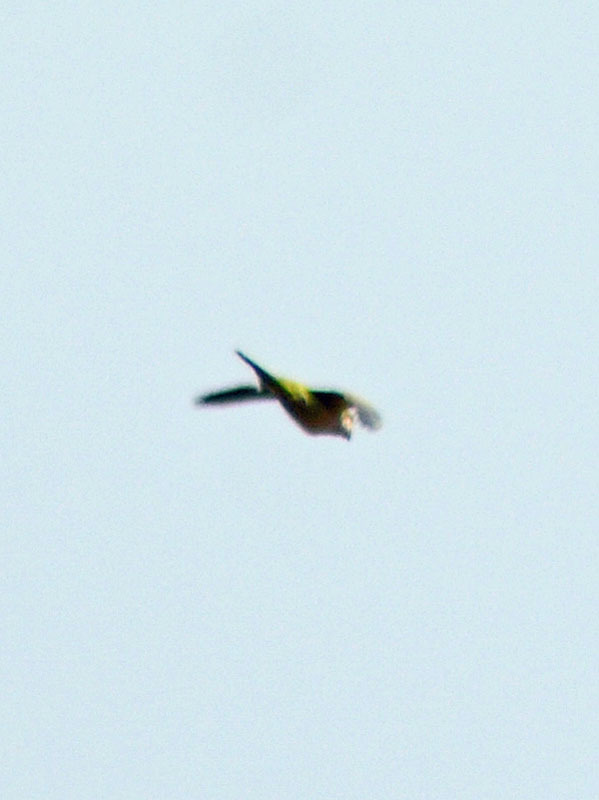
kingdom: Animalia
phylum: Chordata
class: Aves
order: Psittaciformes
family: Psittacidae
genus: Myiopsitta
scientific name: Myiopsitta monachus
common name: Monk parakeet
